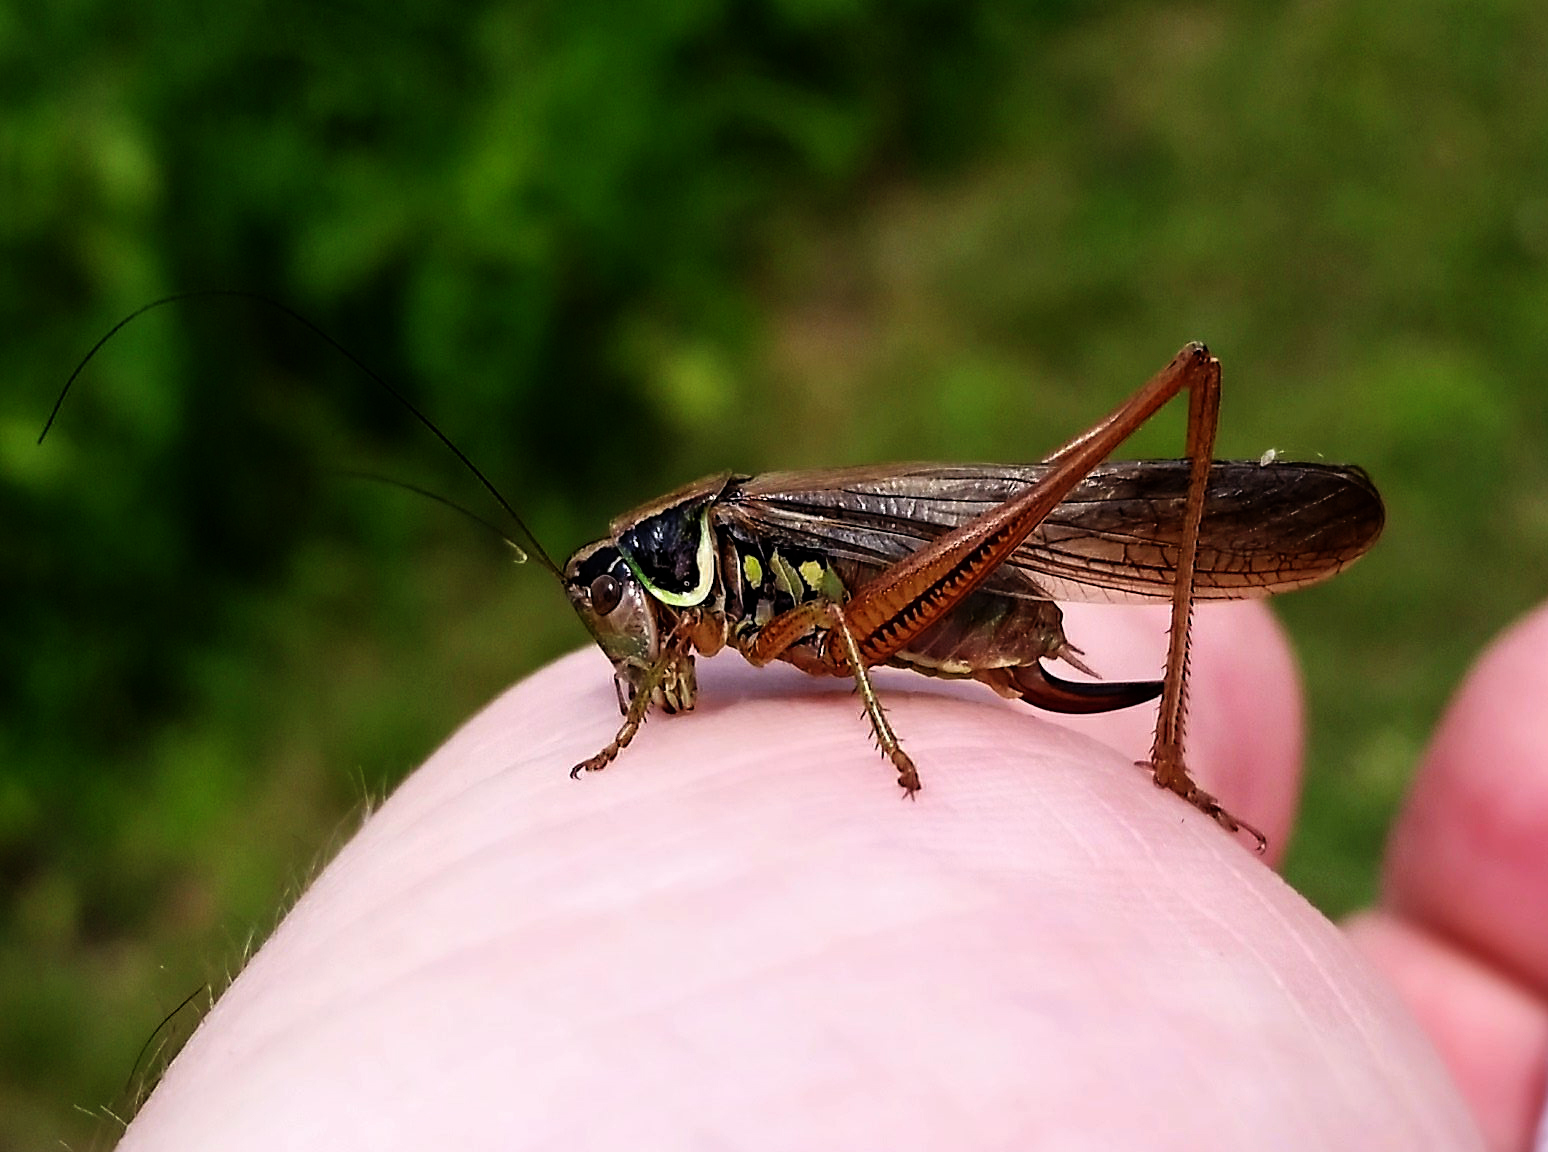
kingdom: Animalia
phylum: Arthropoda
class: Insecta
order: Orthoptera
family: Tettigoniidae
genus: Roeseliana
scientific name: Roeseliana roeselii
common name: Roesel's bush cricket
